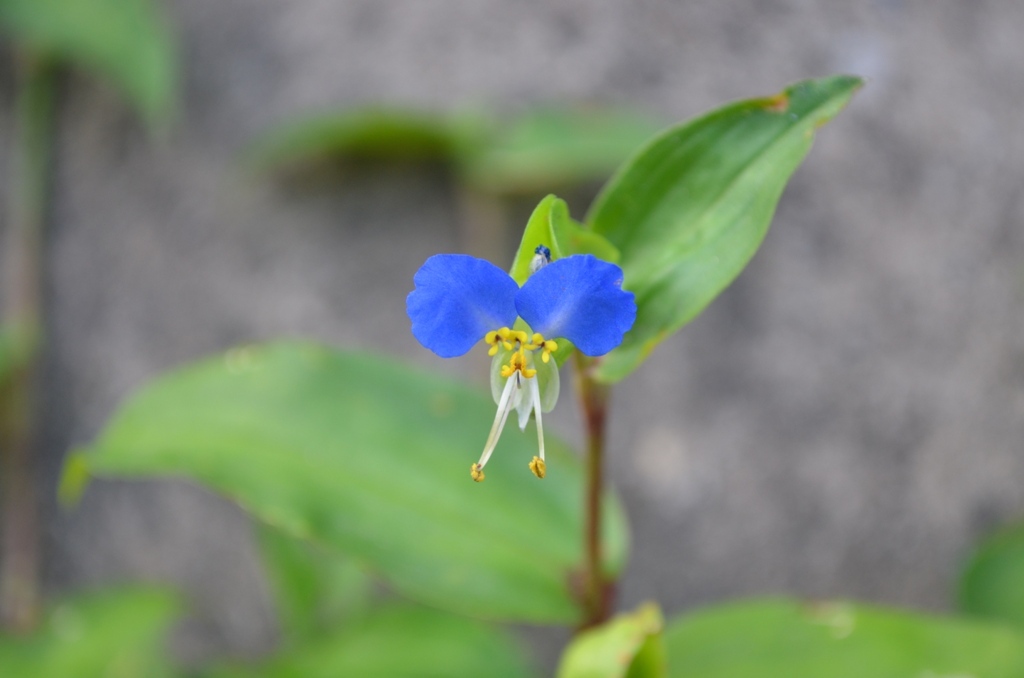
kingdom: Plantae
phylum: Tracheophyta
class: Liliopsida
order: Commelinales
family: Commelinaceae
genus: Commelina
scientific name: Commelina communis
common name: Asiatic dayflower
